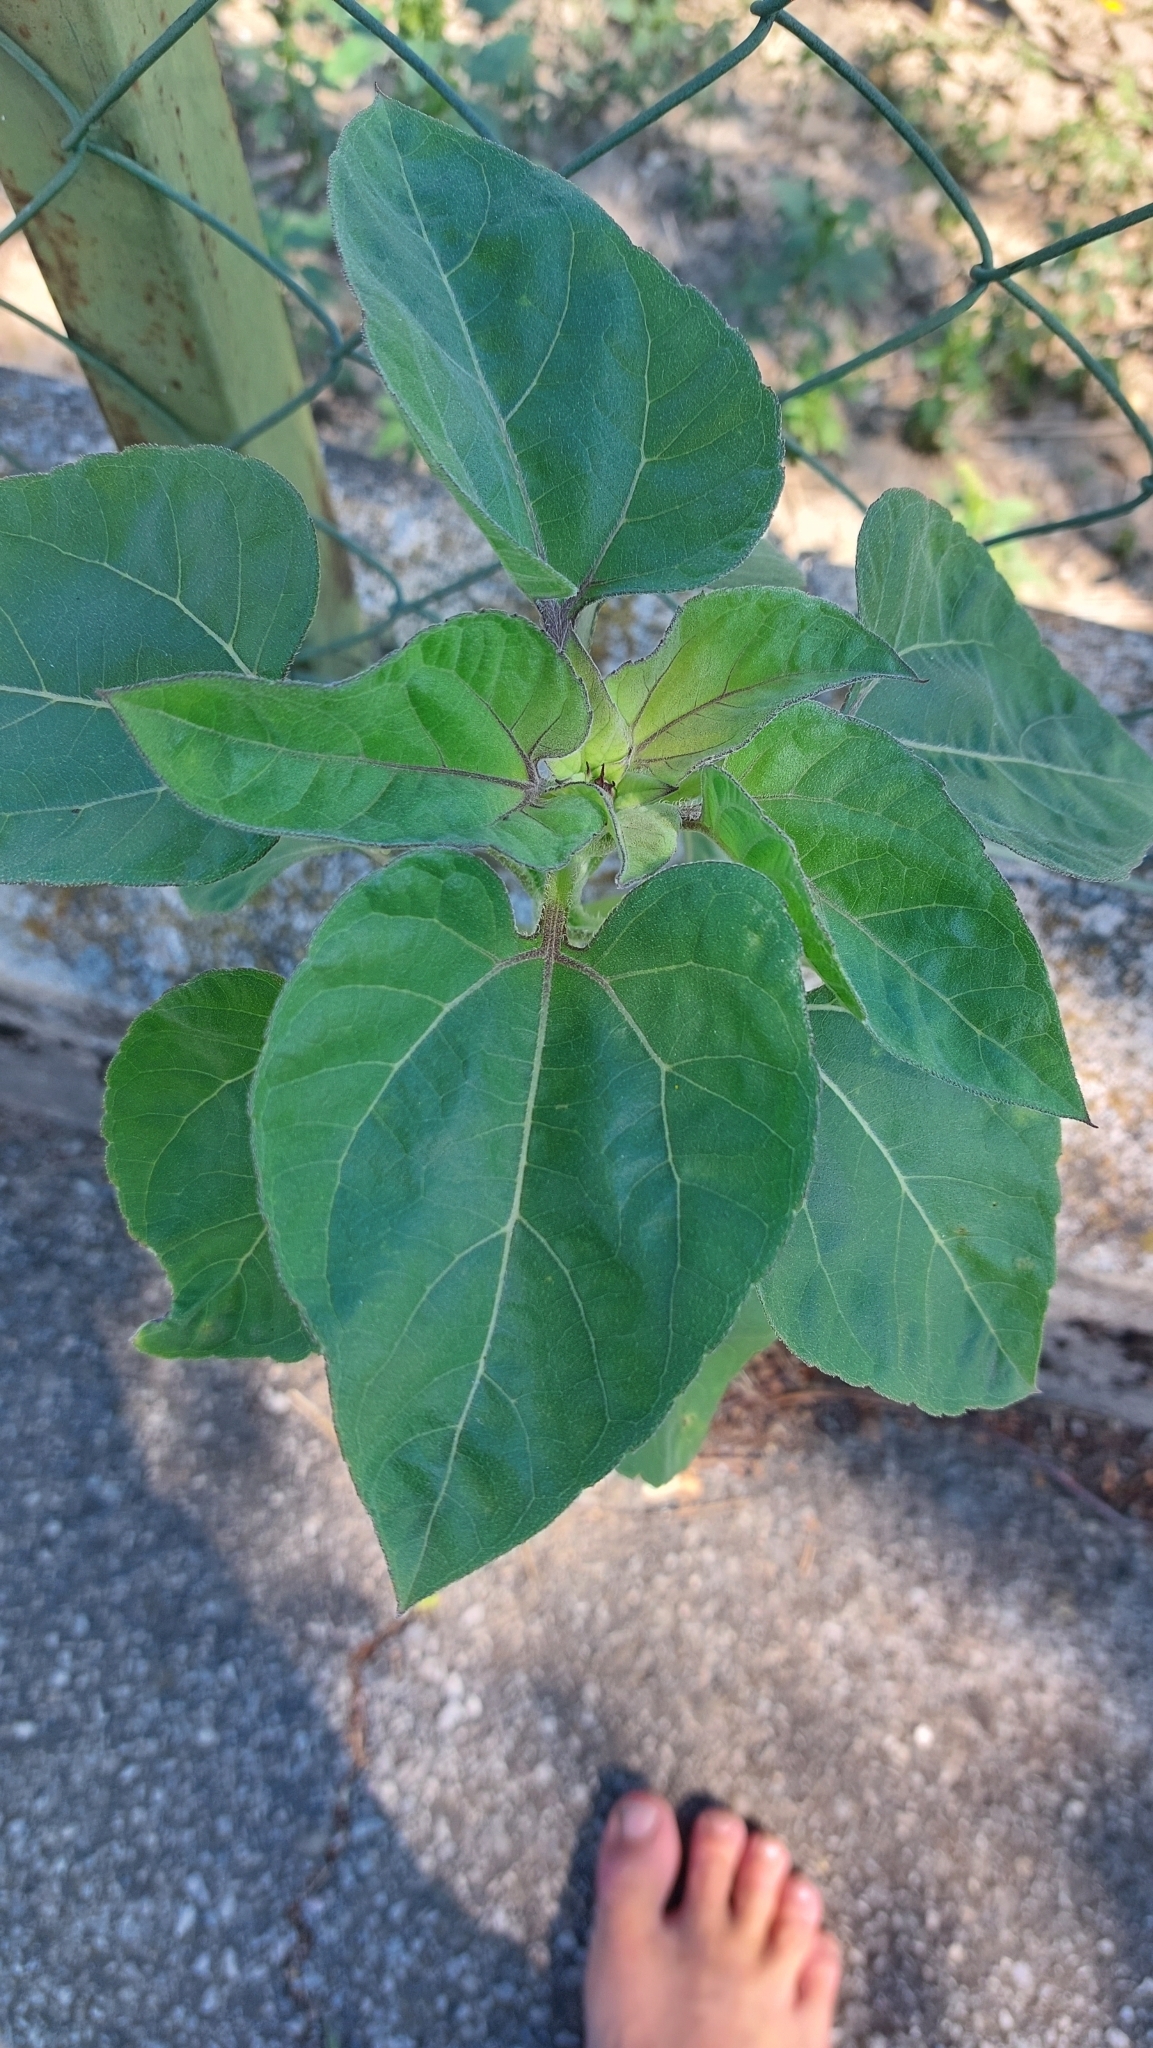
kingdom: Plantae
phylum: Tracheophyta
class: Magnoliopsida
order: Asterales
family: Asteraceae
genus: Helianthus
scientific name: Helianthus annuus
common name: Sunflower
